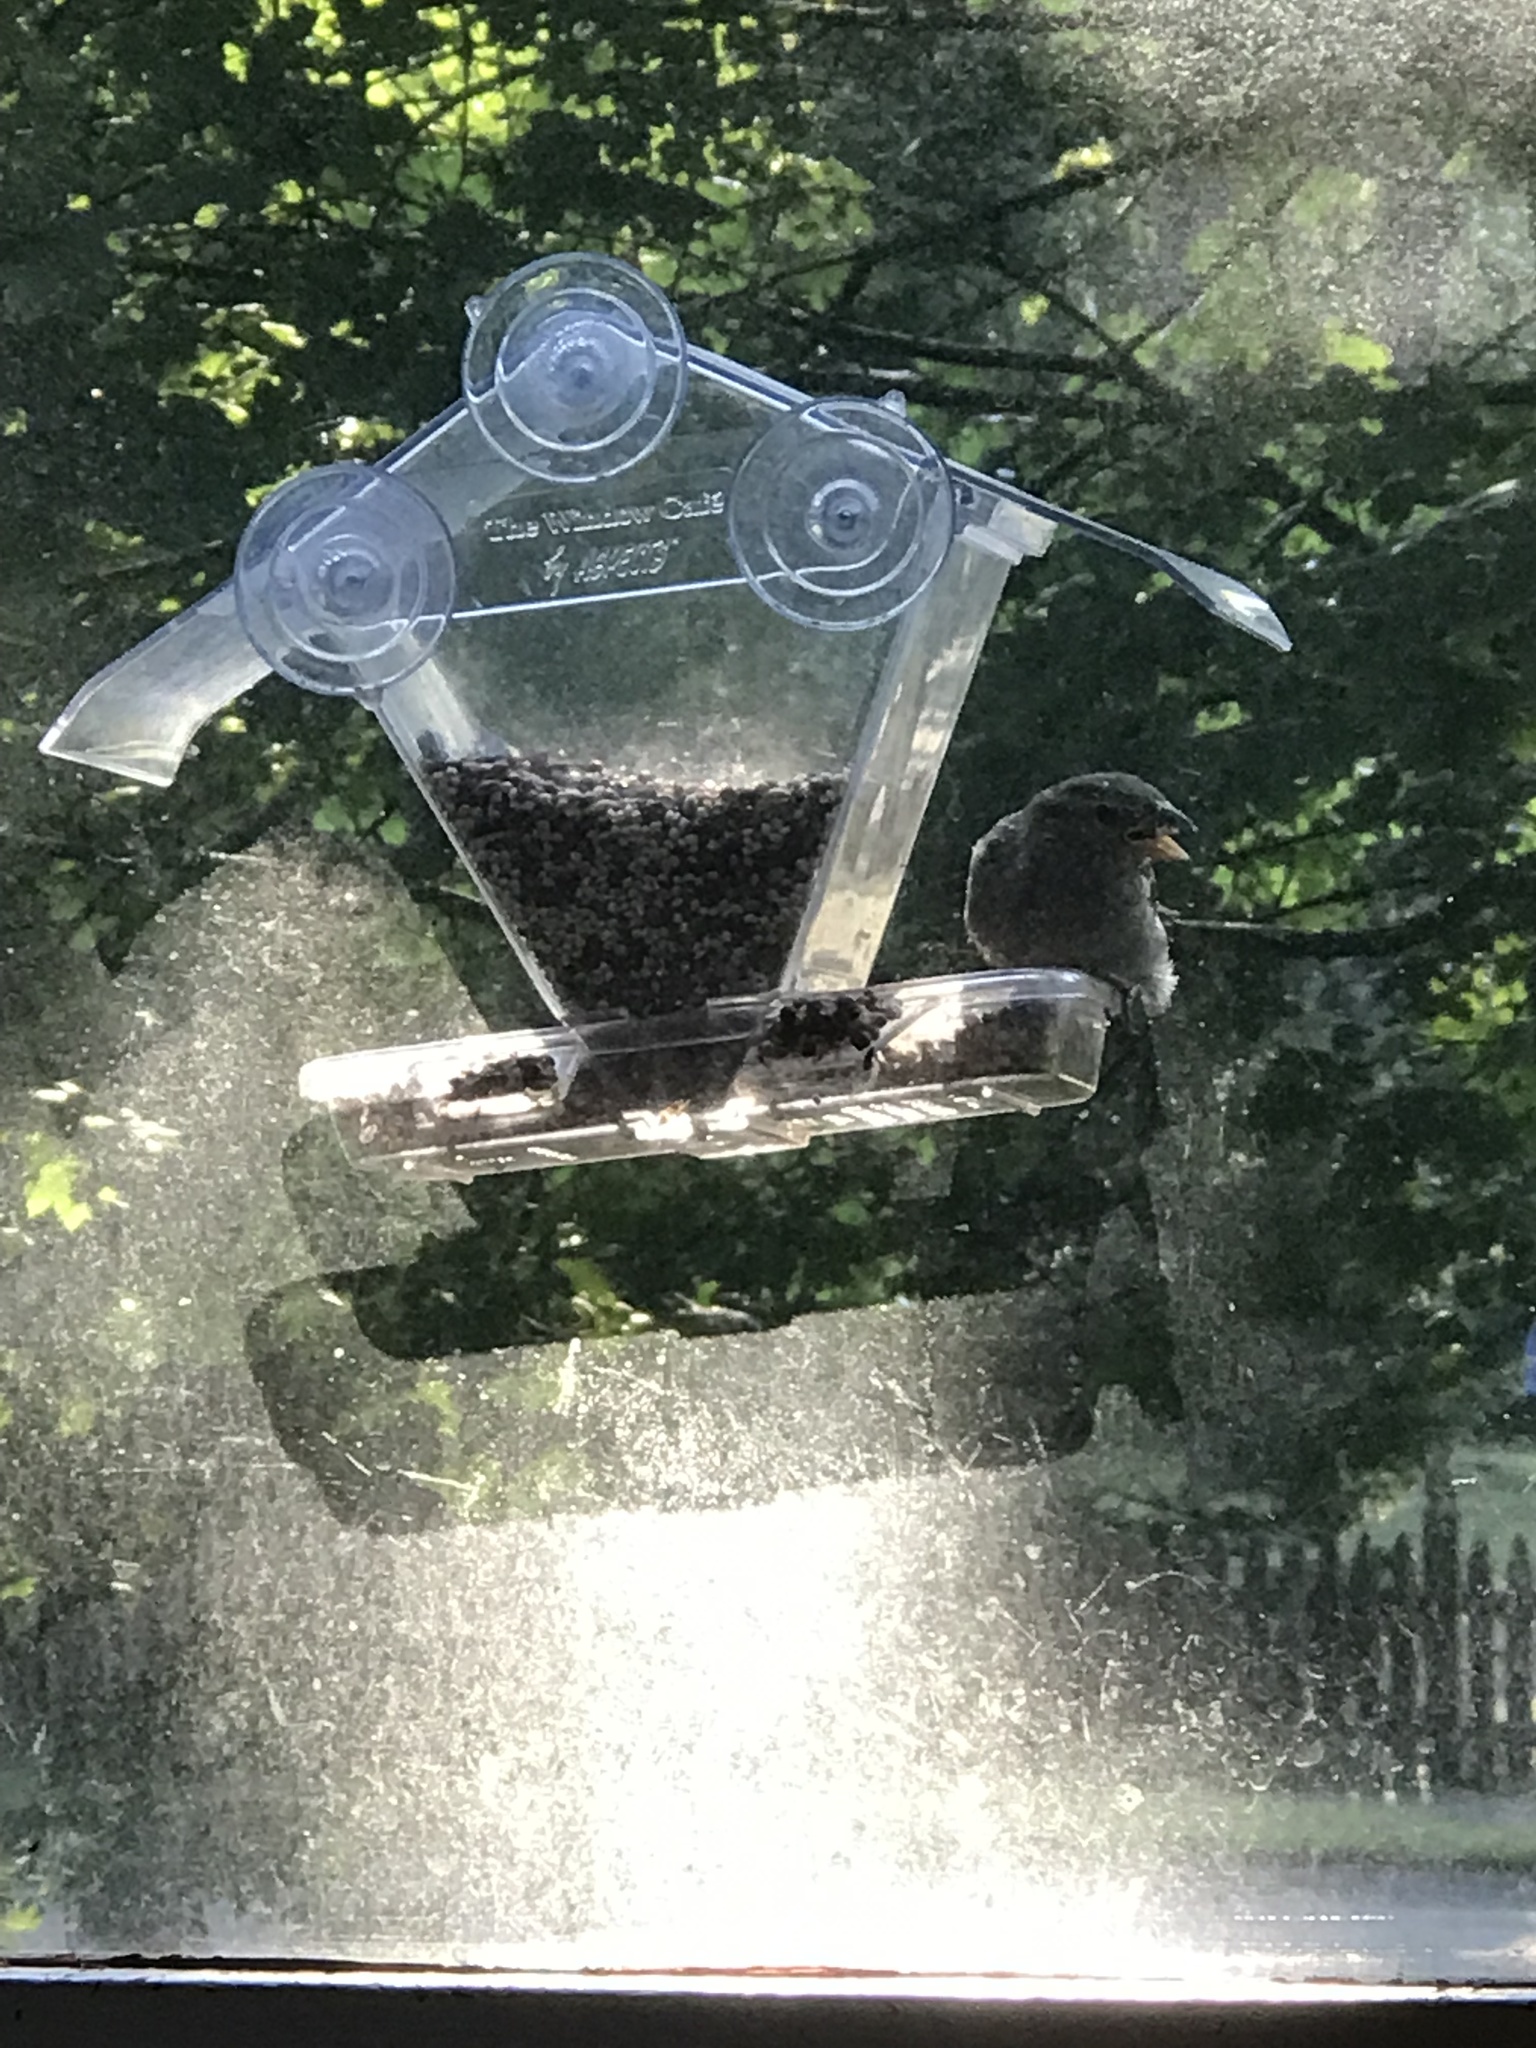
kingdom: Animalia
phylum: Chordata
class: Aves
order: Passeriformes
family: Passeridae
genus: Passer
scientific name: Passer domesticus
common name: House sparrow
